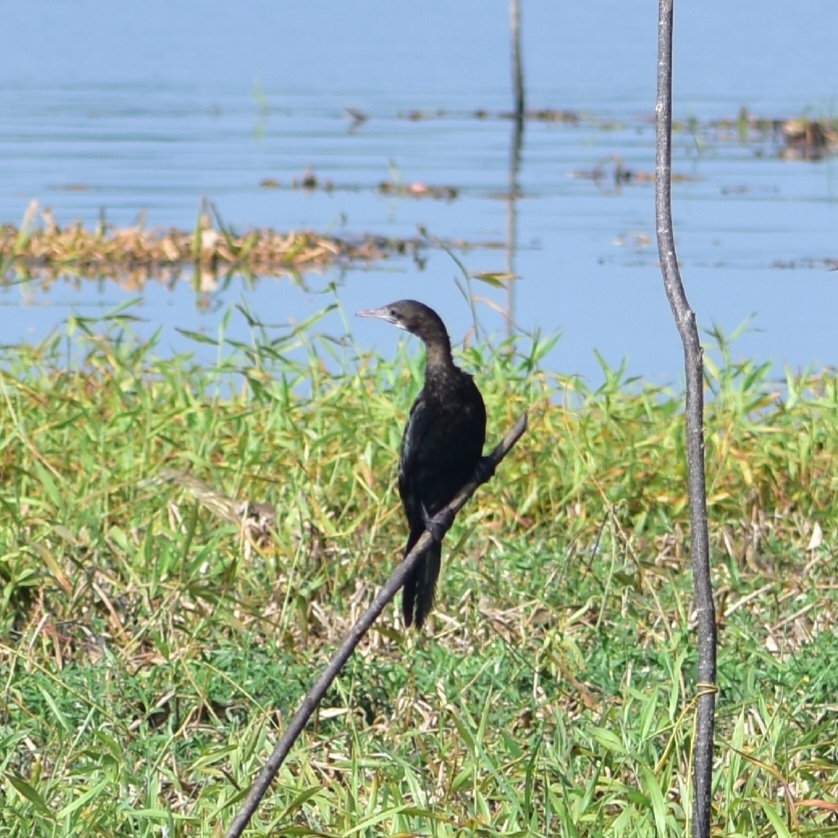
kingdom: Animalia
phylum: Chordata
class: Aves
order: Suliformes
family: Phalacrocoracidae
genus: Microcarbo
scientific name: Microcarbo niger
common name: Little cormorant
